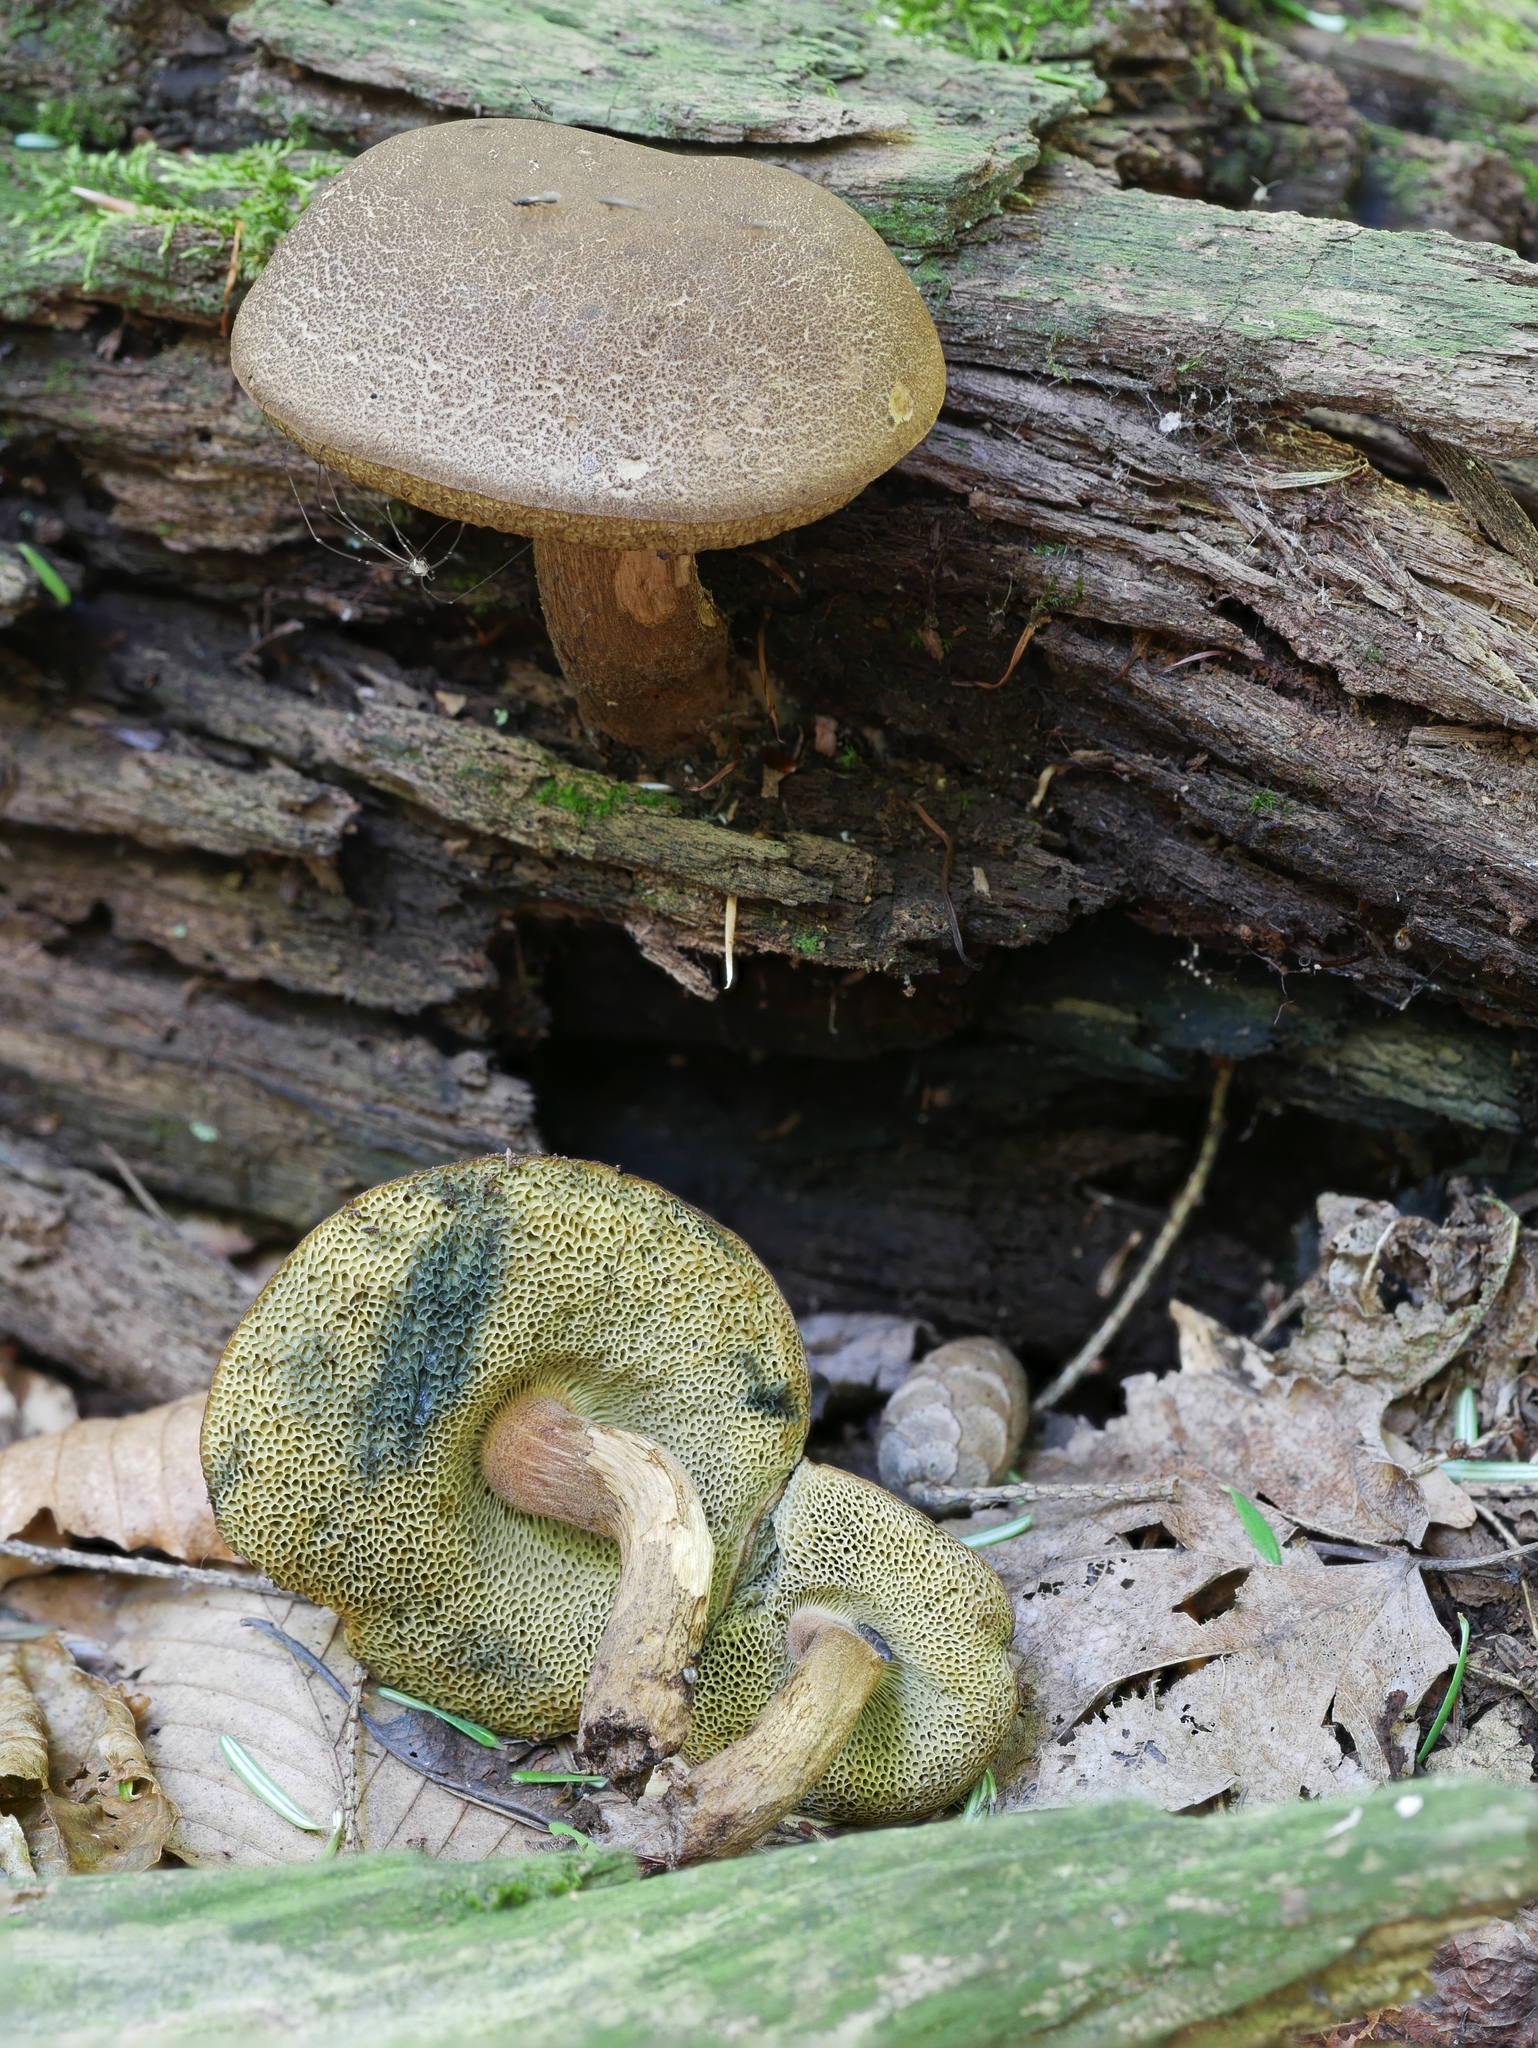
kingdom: Fungi
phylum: Basidiomycota
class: Agaricomycetes
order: Boletales
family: Boletaceae
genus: Boletellus
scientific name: Boletellus chrysenteroides
